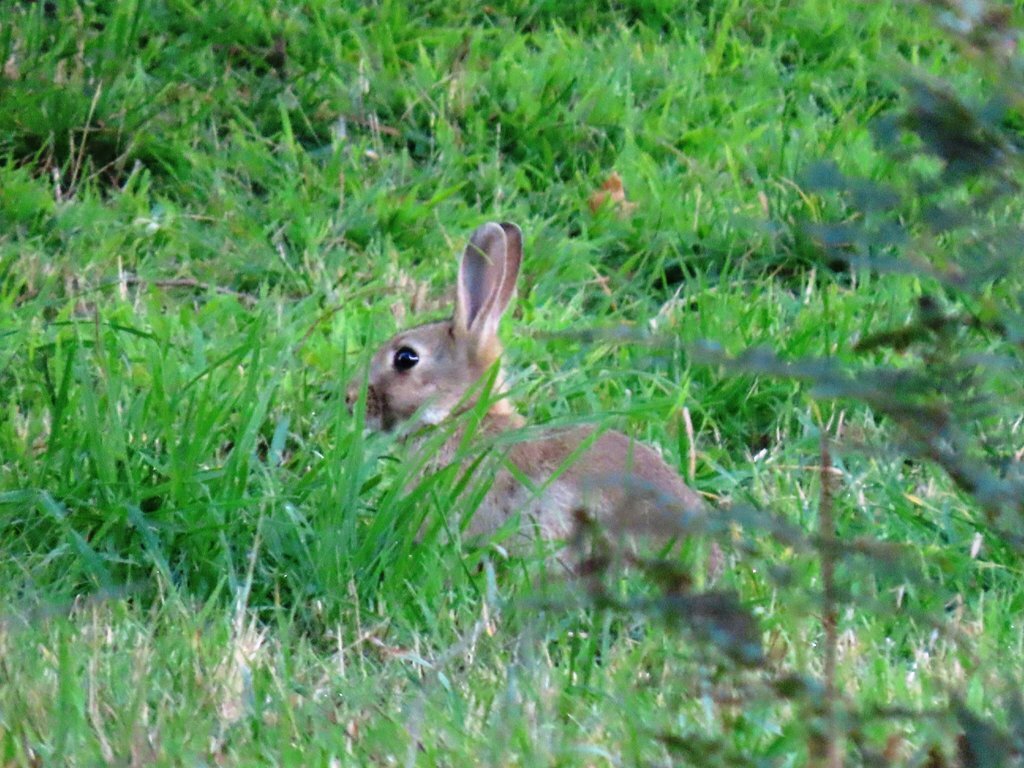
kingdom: Animalia
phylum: Chordata
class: Mammalia
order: Lagomorpha
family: Leporidae
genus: Oryctolagus
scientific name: Oryctolagus cuniculus
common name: European rabbit
